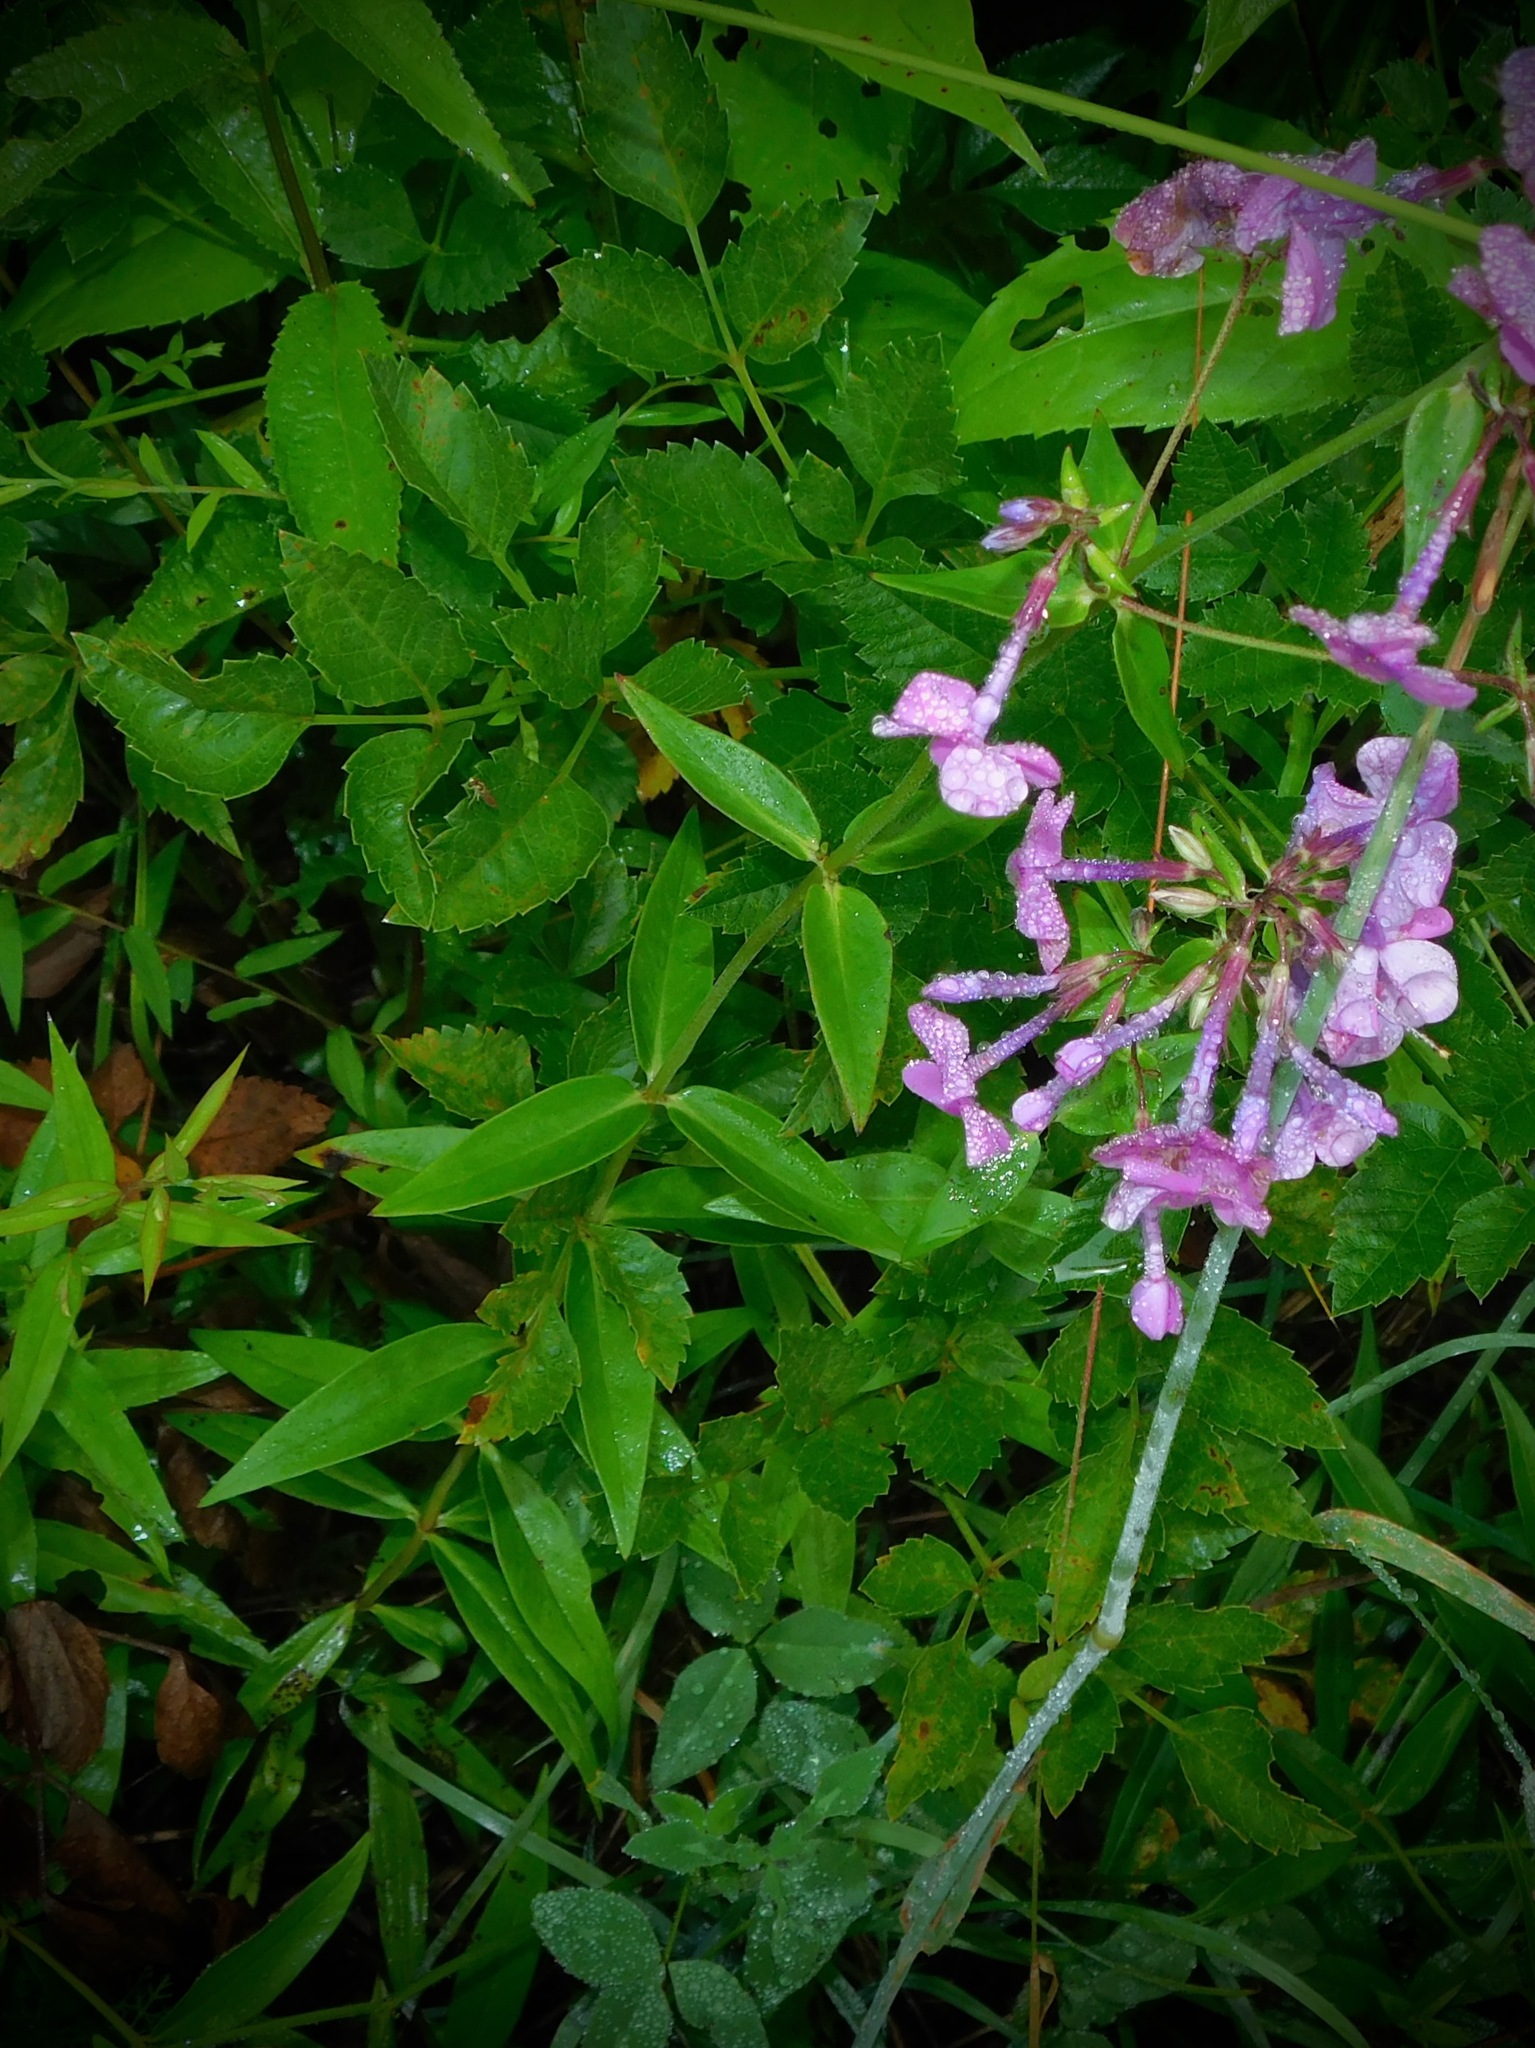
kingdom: Plantae
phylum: Tracheophyta
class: Magnoliopsida
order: Ericales
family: Polemoniaceae
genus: Phlox
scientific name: Phlox carolina
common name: Thick-leaf phlox
